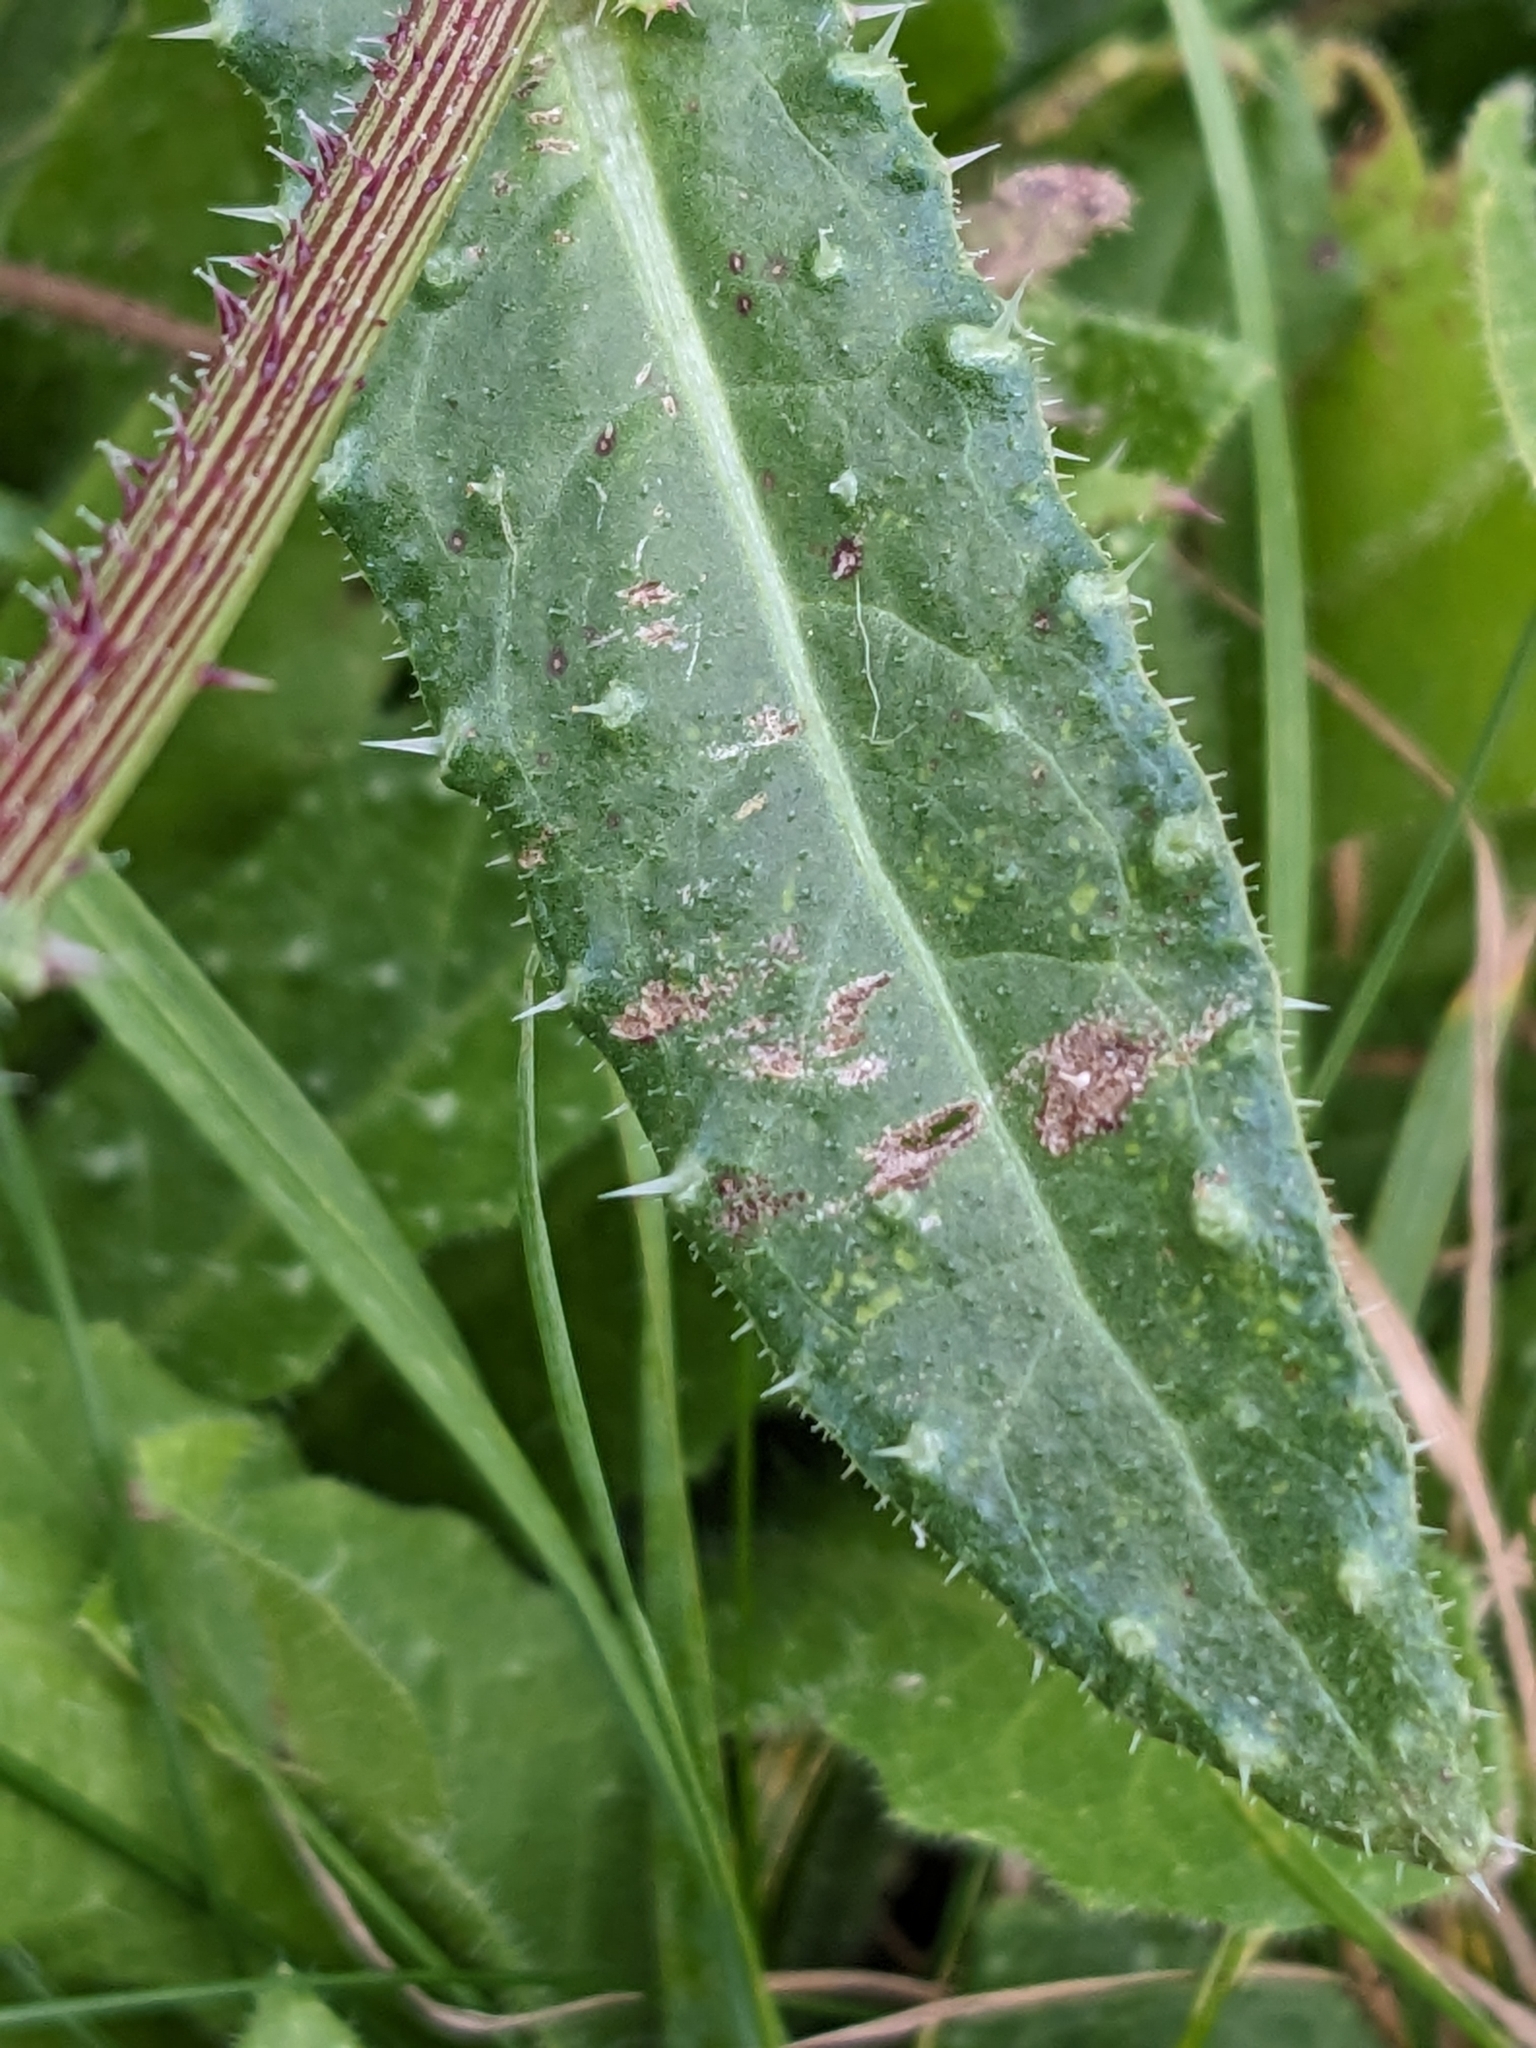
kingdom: Plantae
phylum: Tracheophyta
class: Magnoliopsida
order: Asterales
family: Asteraceae
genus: Helminthotheca
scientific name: Helminthotheca echioides
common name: Ox-tongue
